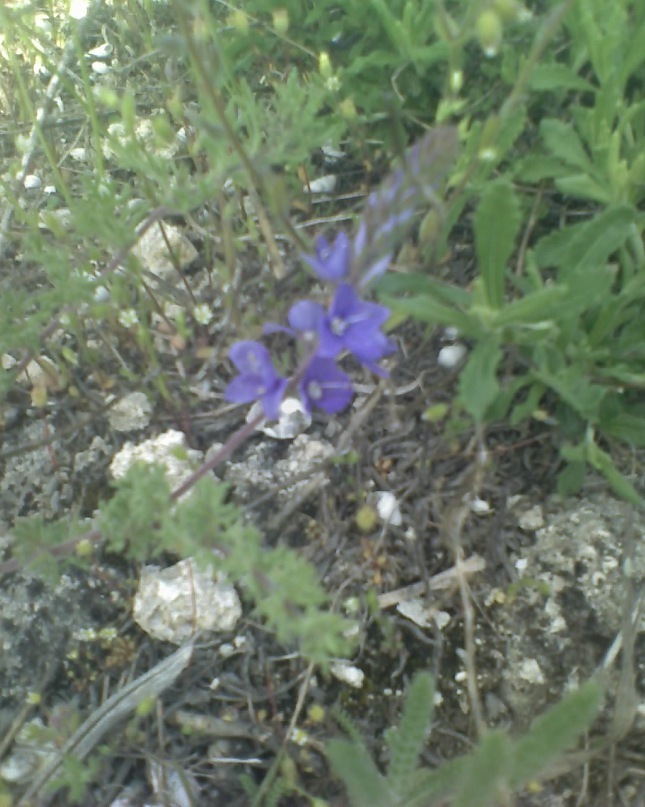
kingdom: Plantae
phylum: Tracheophyta
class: Magnoliopsida
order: Lamiales
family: Plantaginaceae
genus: Veronica
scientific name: Veronica capsellicarpa
